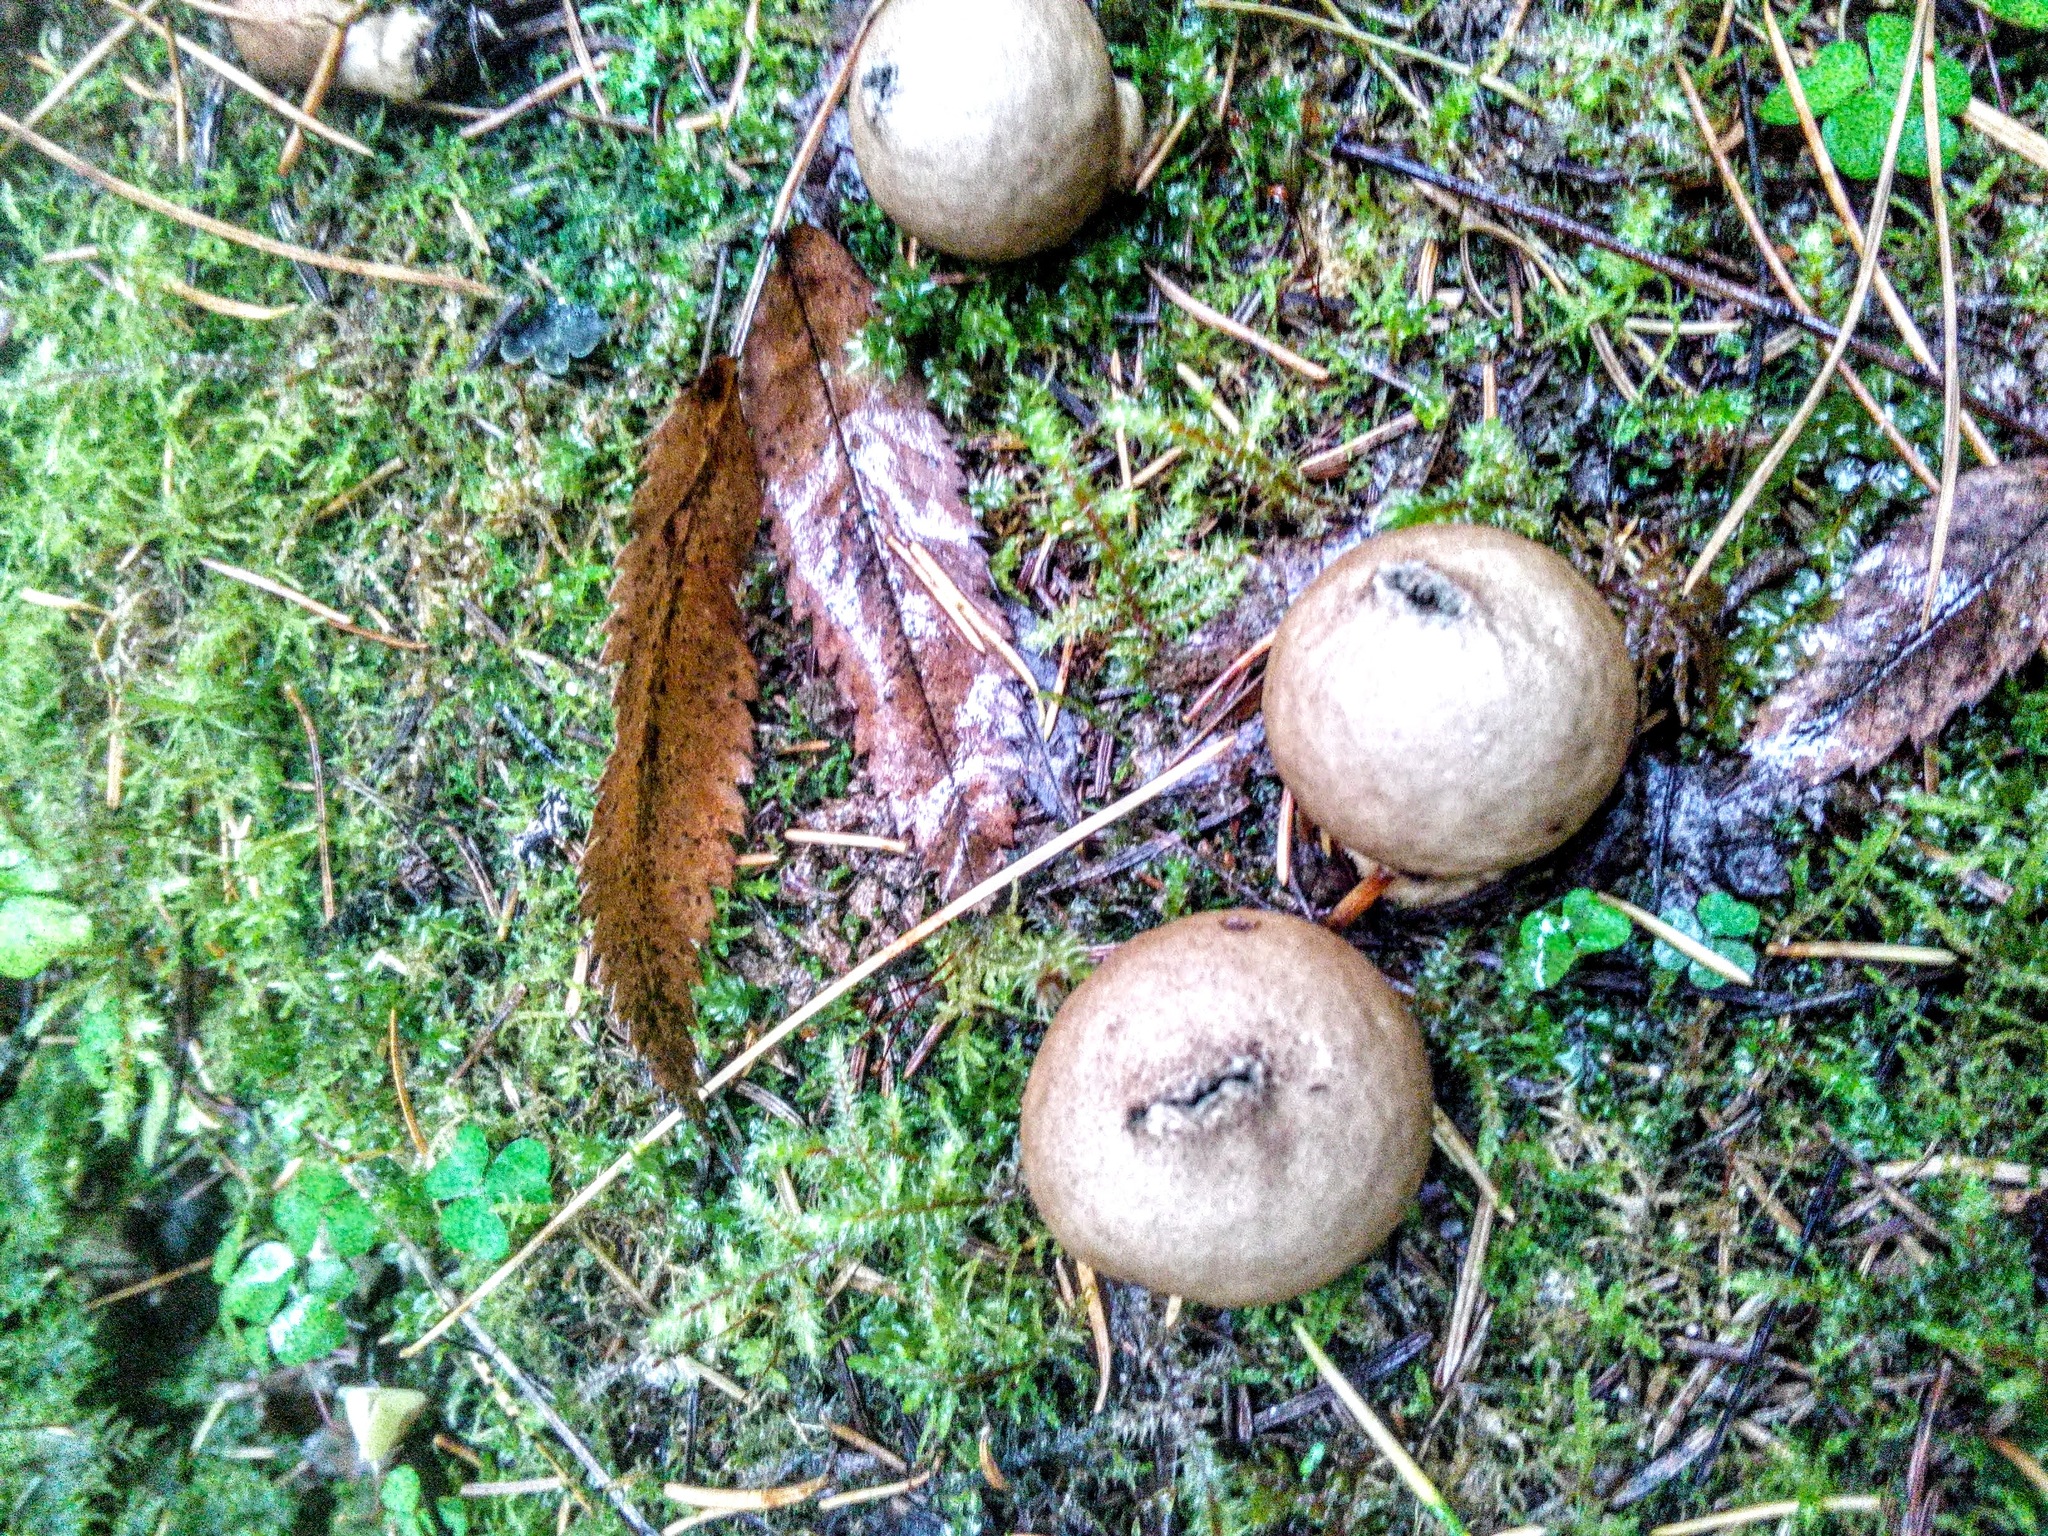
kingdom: Fungi
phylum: Basidiomycota
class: Agaricomycetes
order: Agaricales
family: Lycoperdaceae
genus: Apioperdon
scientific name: Apioperdon pyriforme
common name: Pear-shaped puffball
